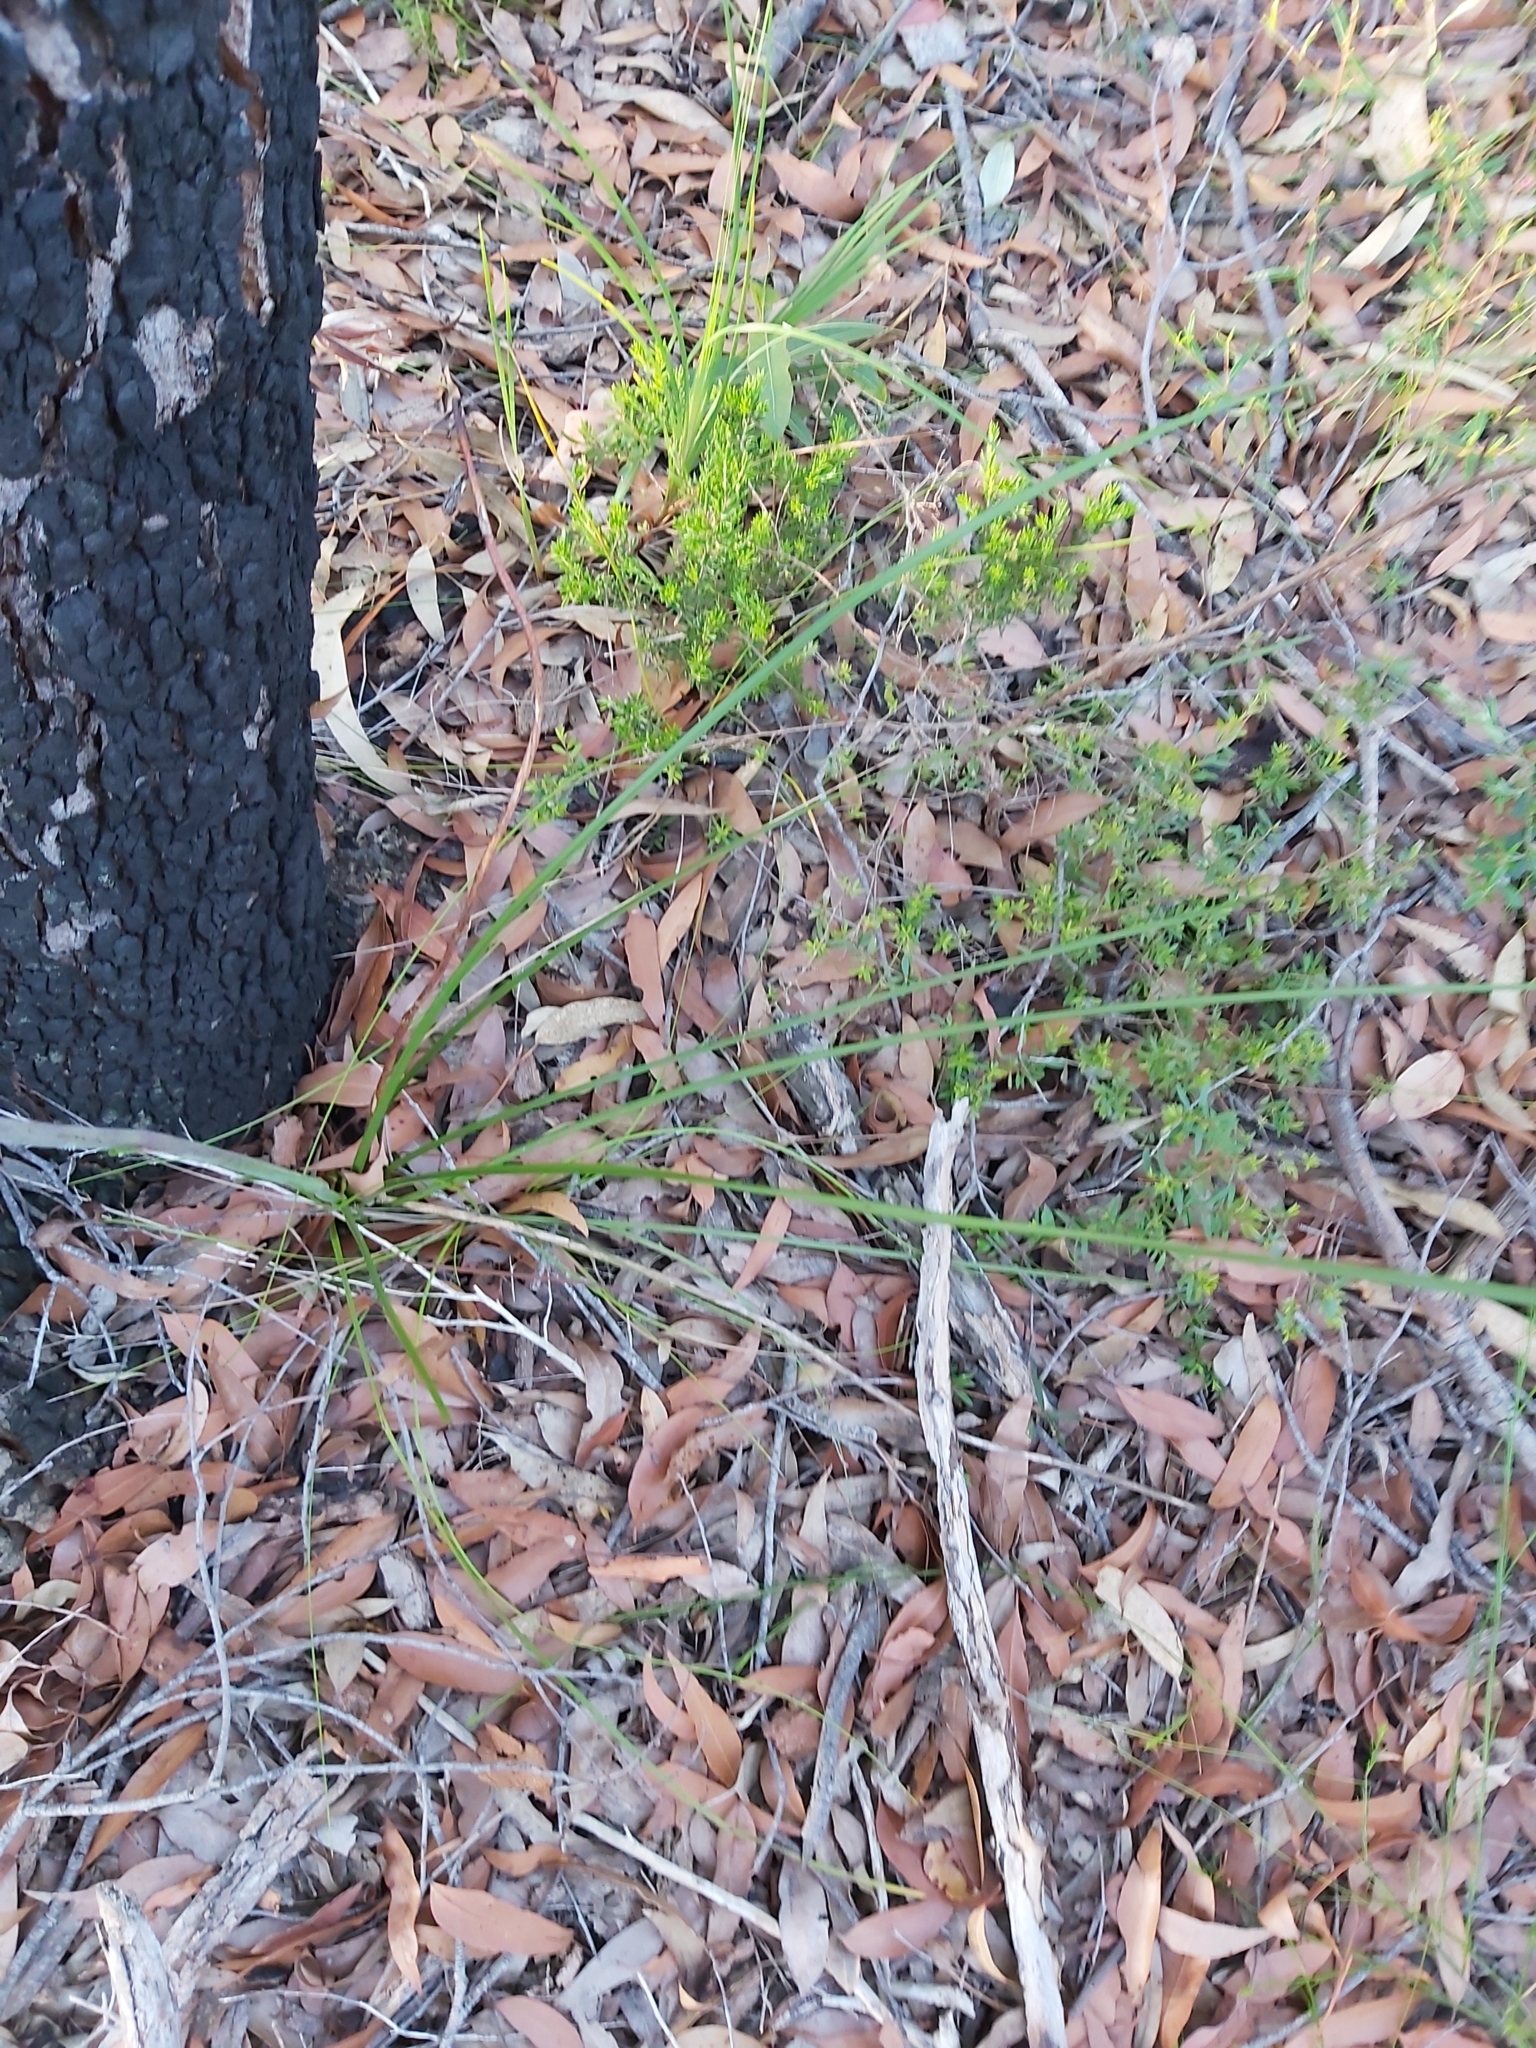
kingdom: Plantae
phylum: Tracheophyta
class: Liliopsida
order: Asparagales
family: Blandfordiaceae
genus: Blandfordia
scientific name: Blandfordia nobilis
